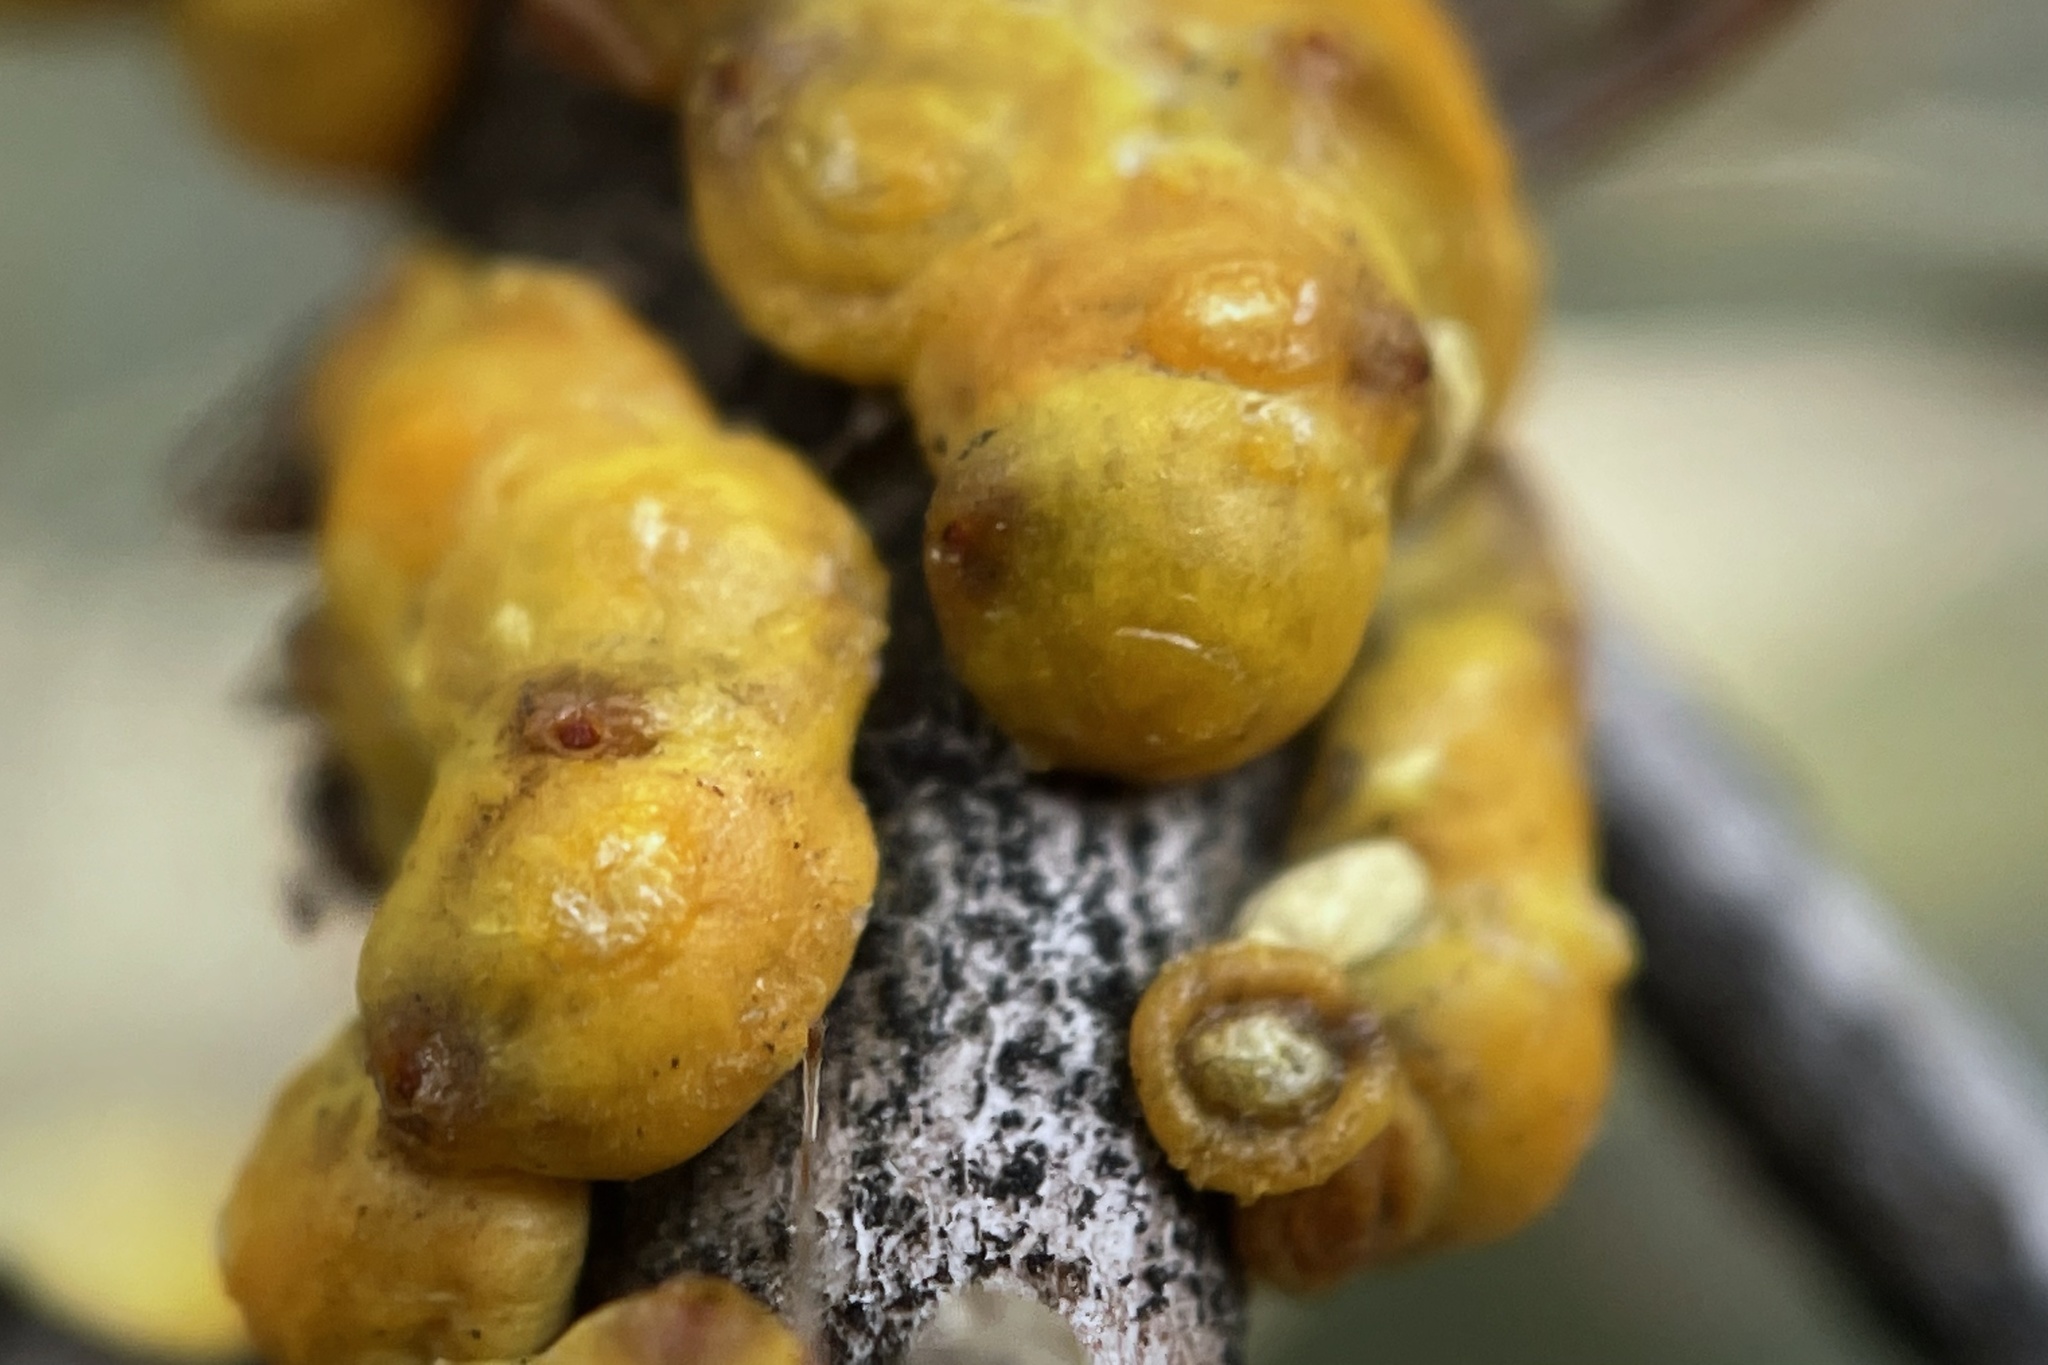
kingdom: Animalia
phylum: Arthropoda
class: Insecta
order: Hemiptera
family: Cerococcidae
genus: Cerococcus
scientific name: Cerococcus quercus
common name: Oak cerococcus
